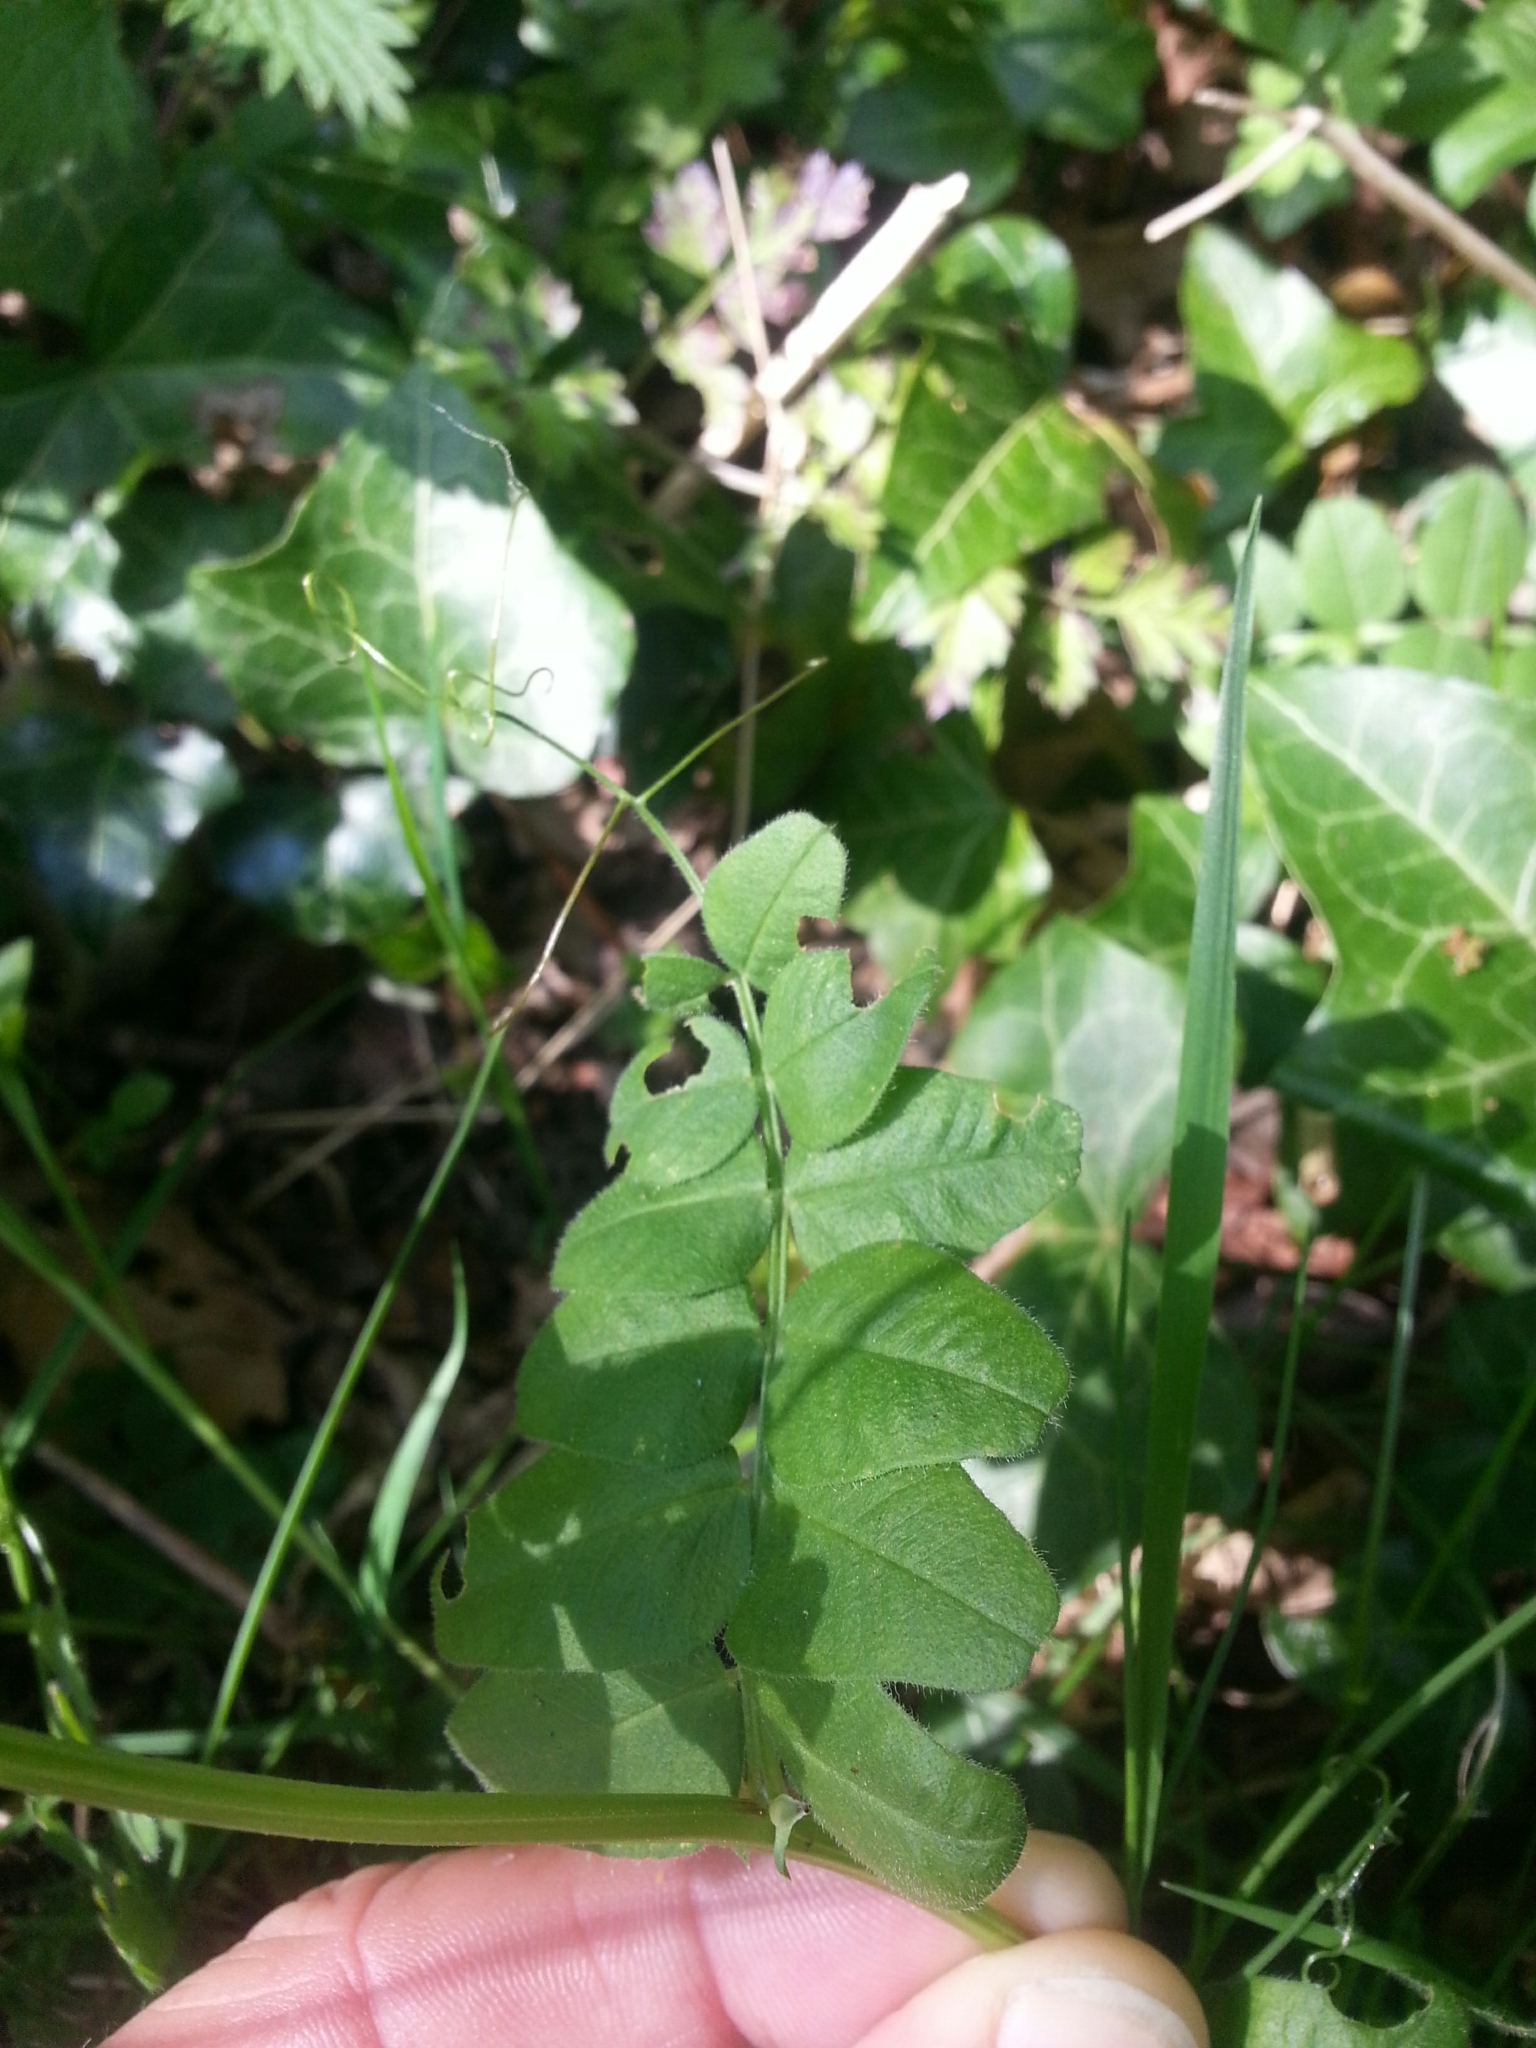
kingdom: Plantae
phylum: Tracheophyta
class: Magnoliopsida
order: Fabales
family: Fabaceae
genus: Vicia
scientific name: Vicia sepium
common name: Bush vetch
